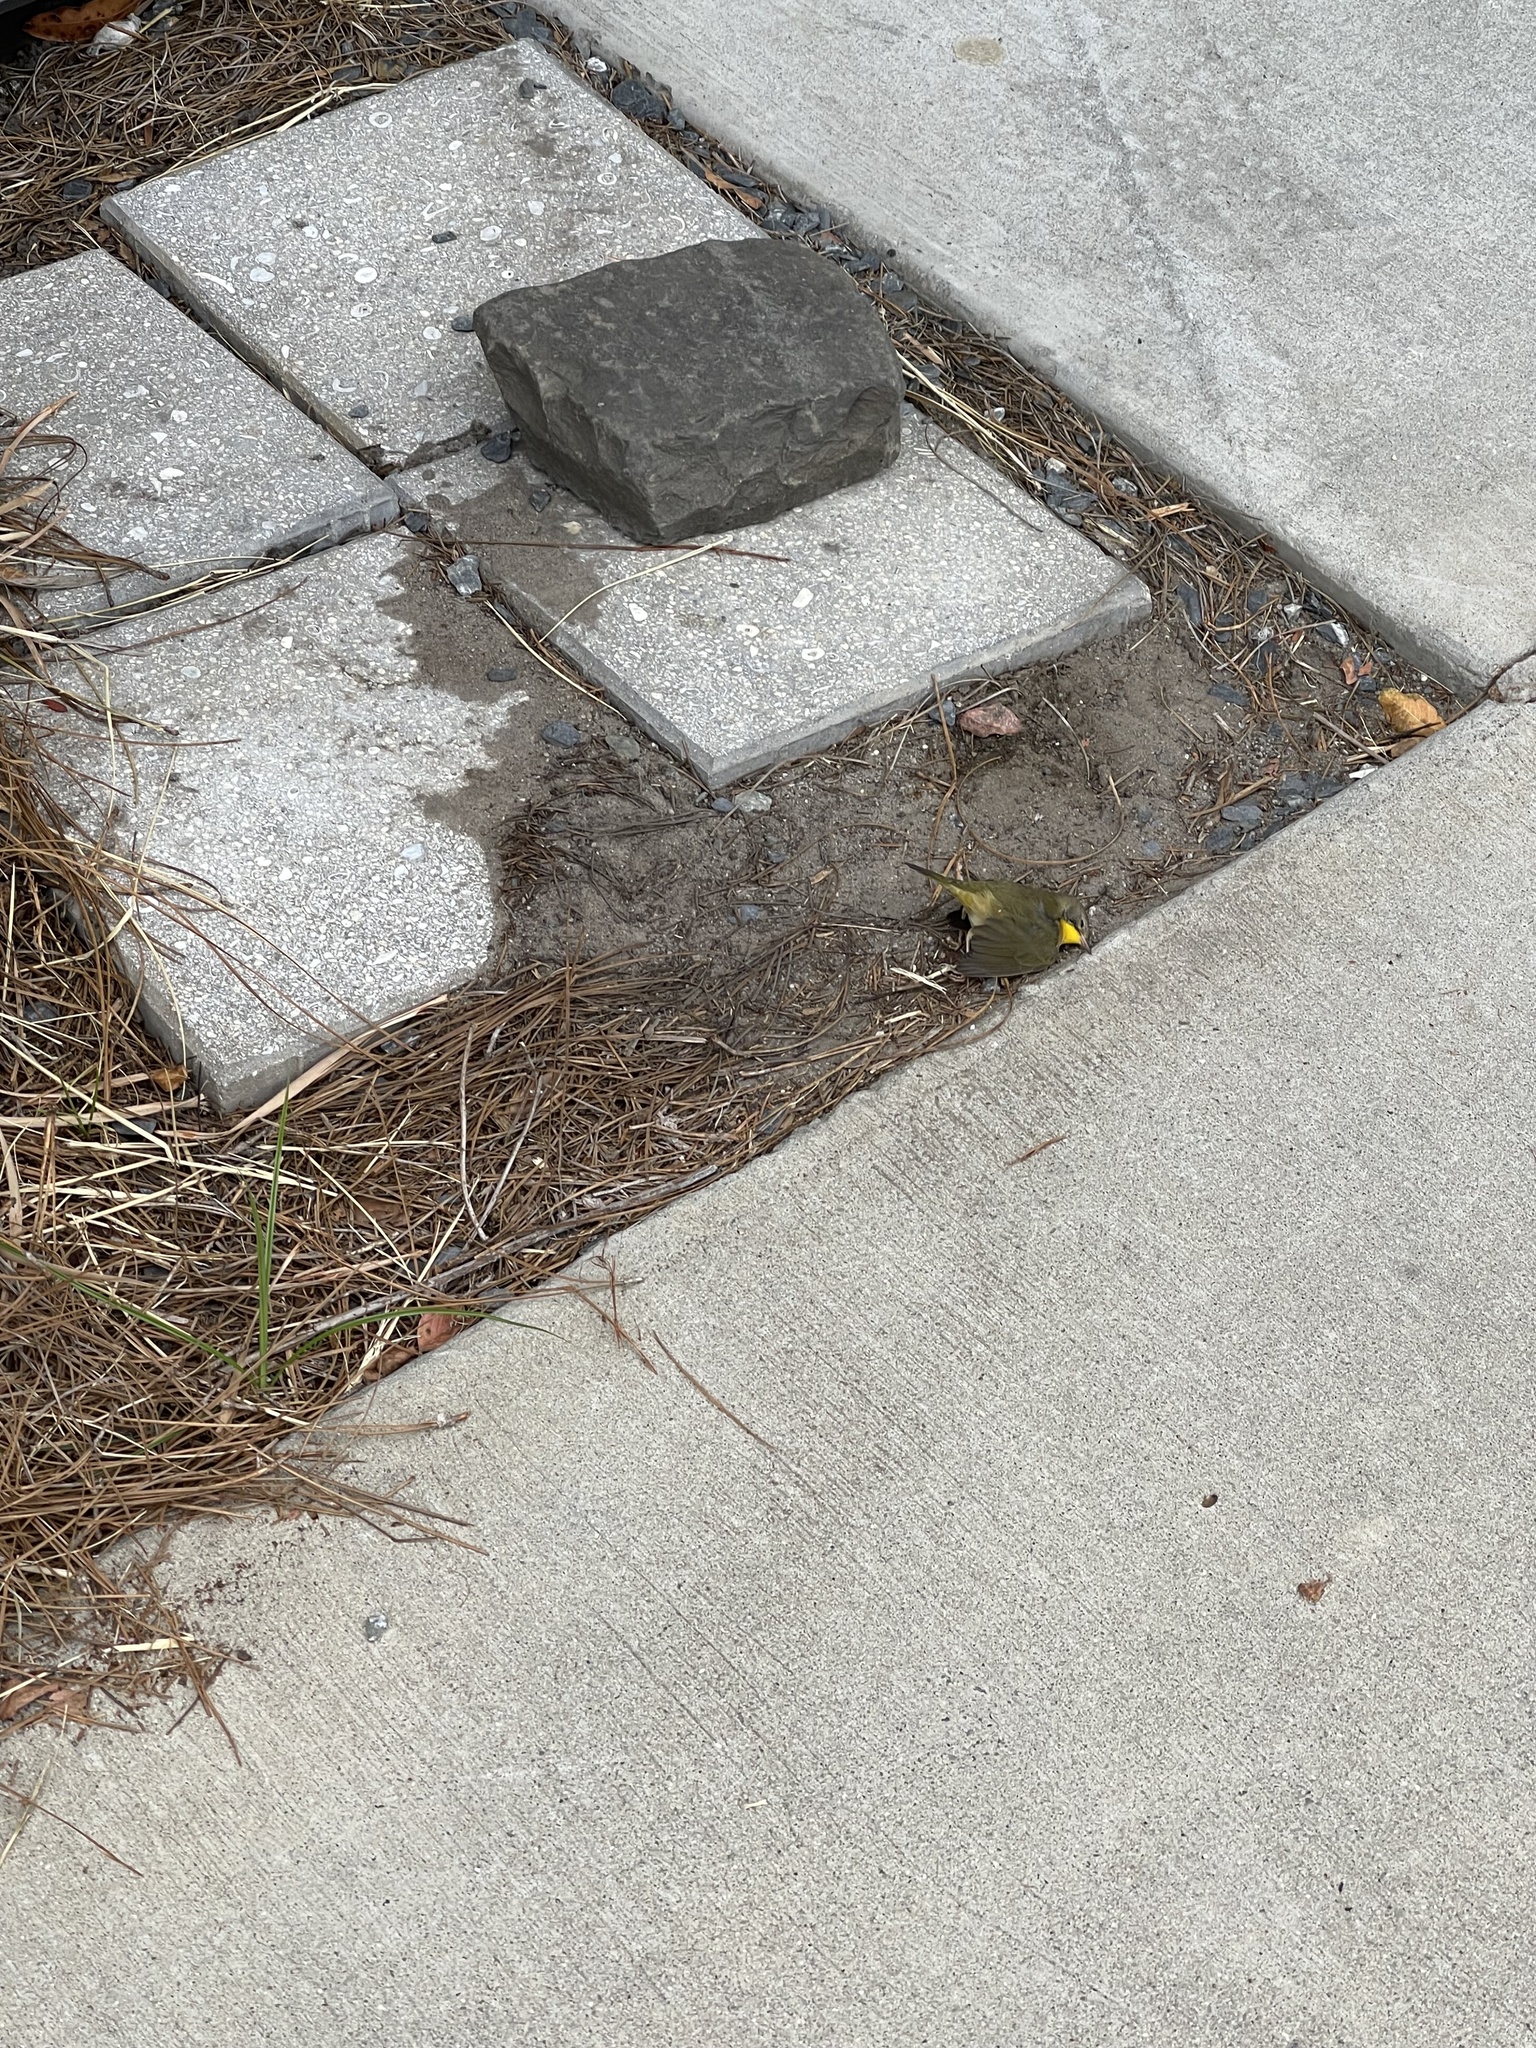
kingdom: Animalia
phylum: Chordata
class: Aves
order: Passeriformes
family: Parulidae
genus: Geothlypis
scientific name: Geothlypis trichas
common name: Common yellowthroat
